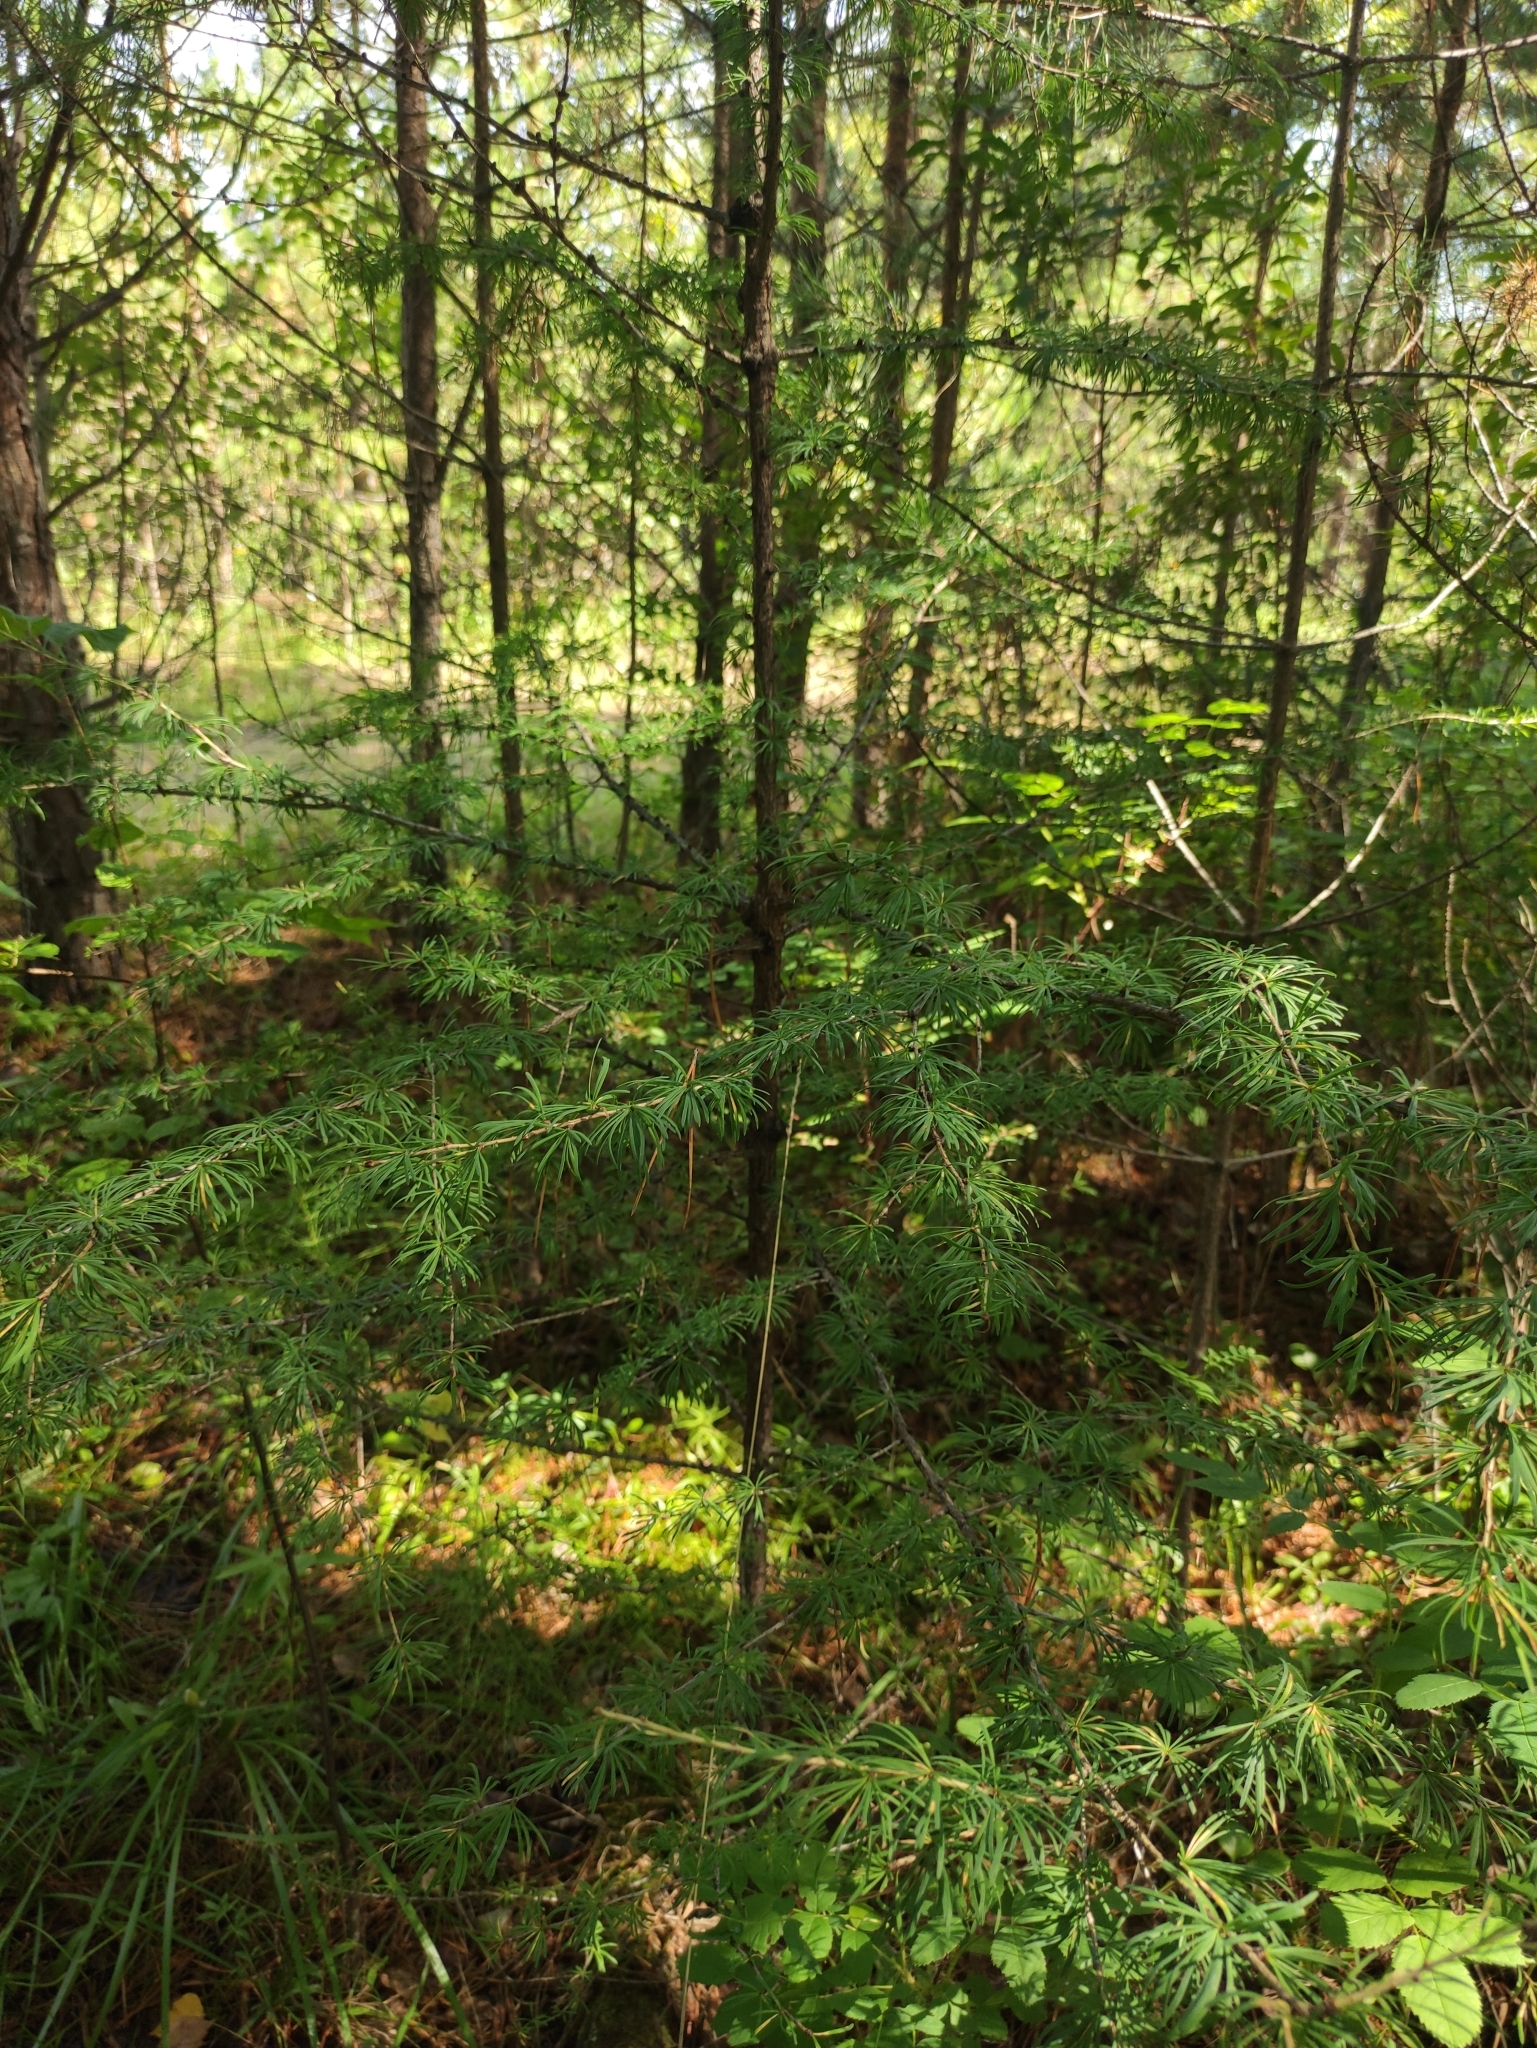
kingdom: Plantae
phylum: Tracheophyta
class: Pinopsida
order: Pinales
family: Pinaceae
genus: Larix
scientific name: Larix sibirica
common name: Siberian larch
